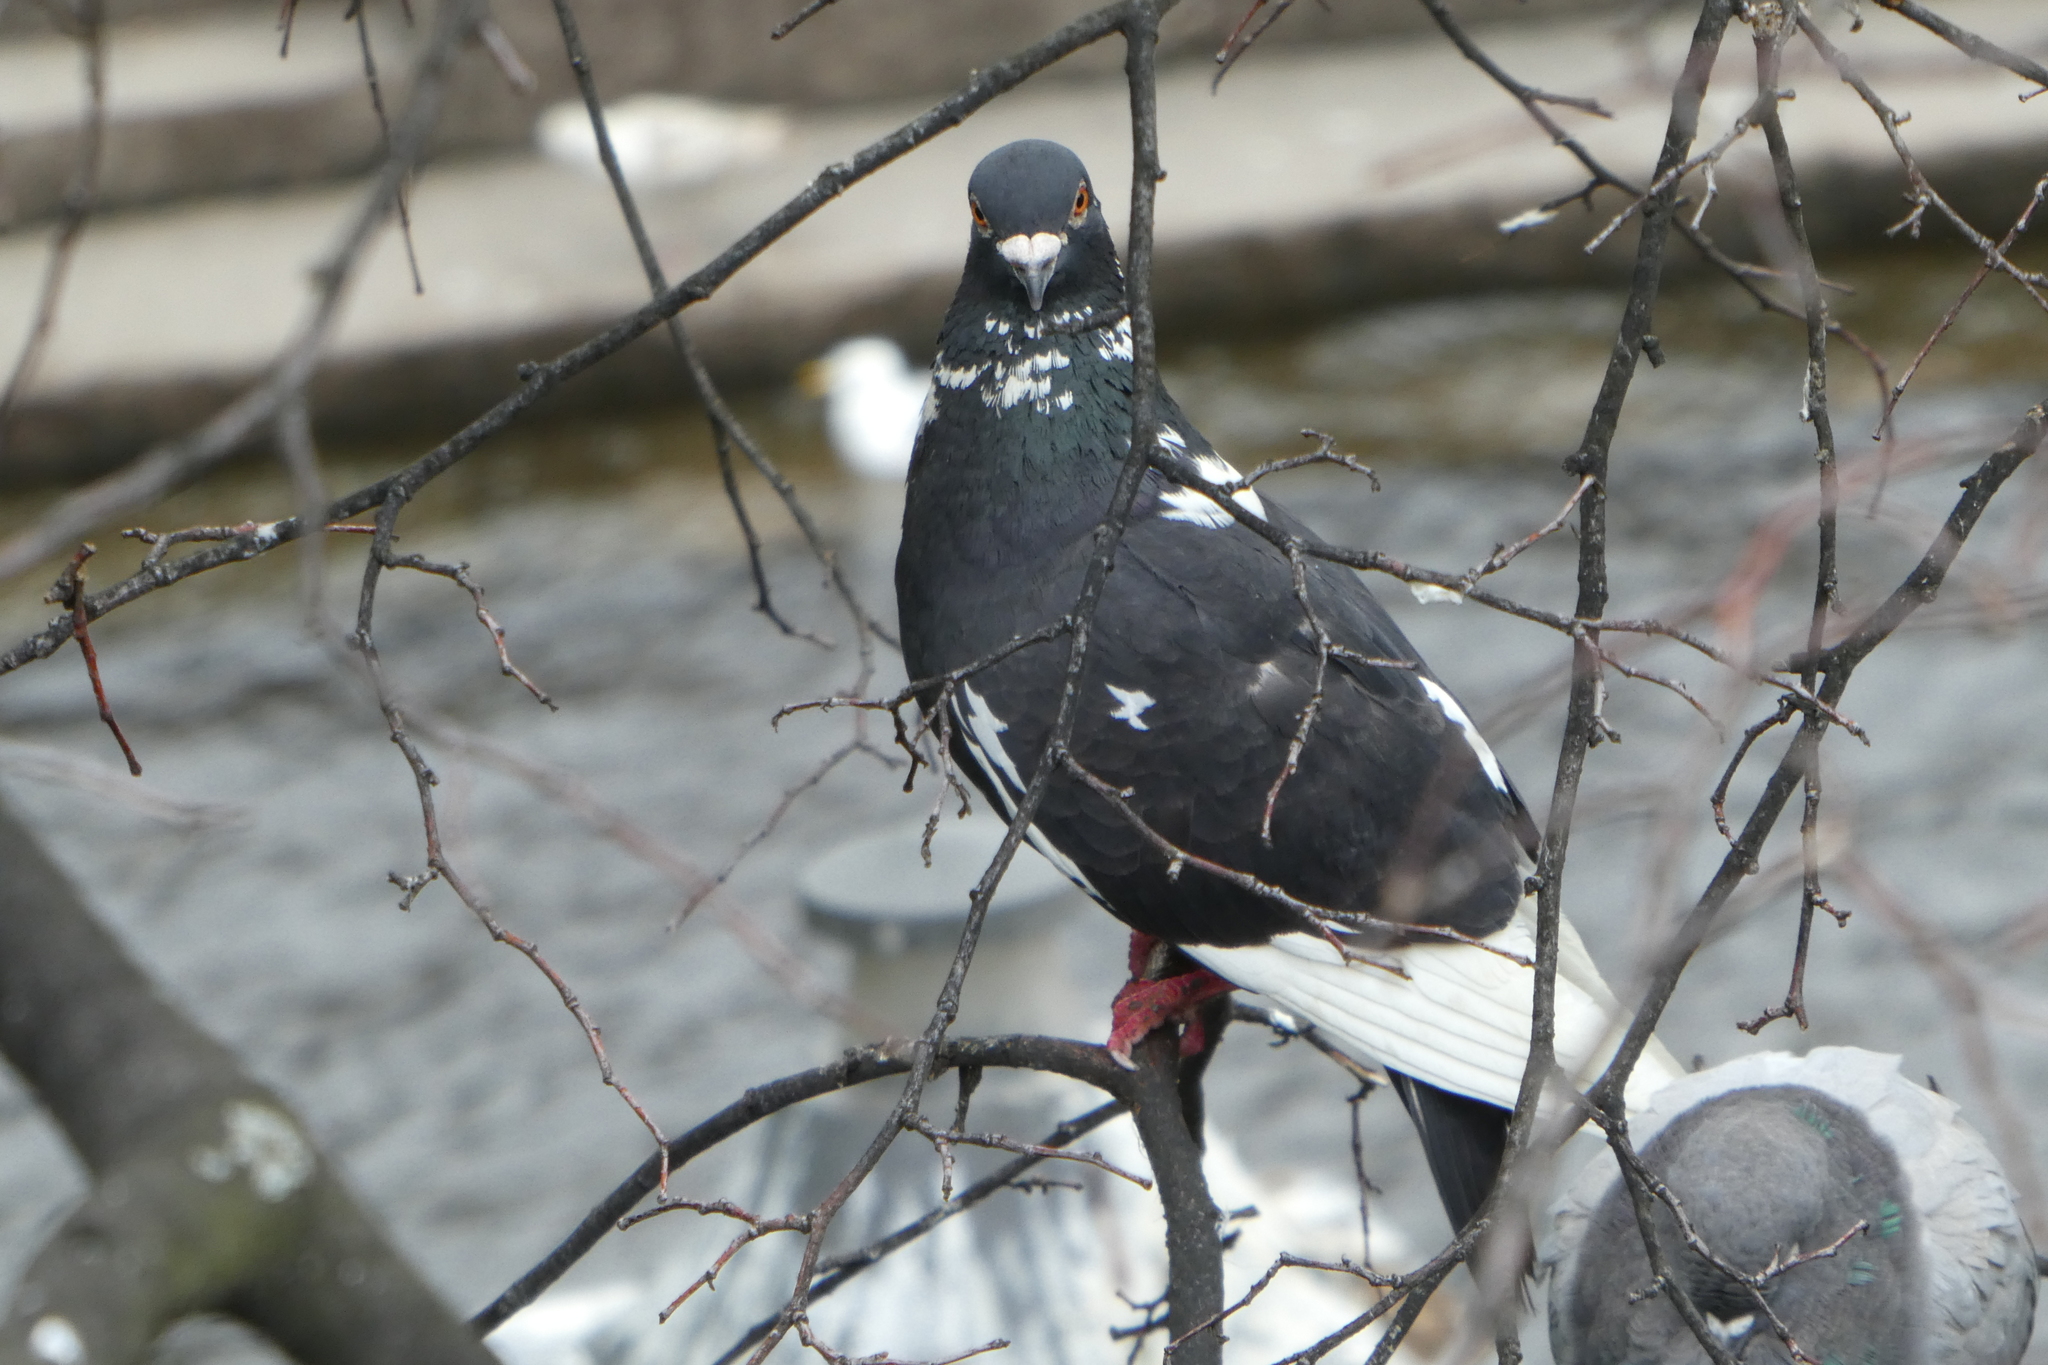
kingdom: Animalia
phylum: Chordata
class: Aves
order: Columbiformes
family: Columbidae
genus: Columba
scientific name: Columba livia
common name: Rock pigeon
